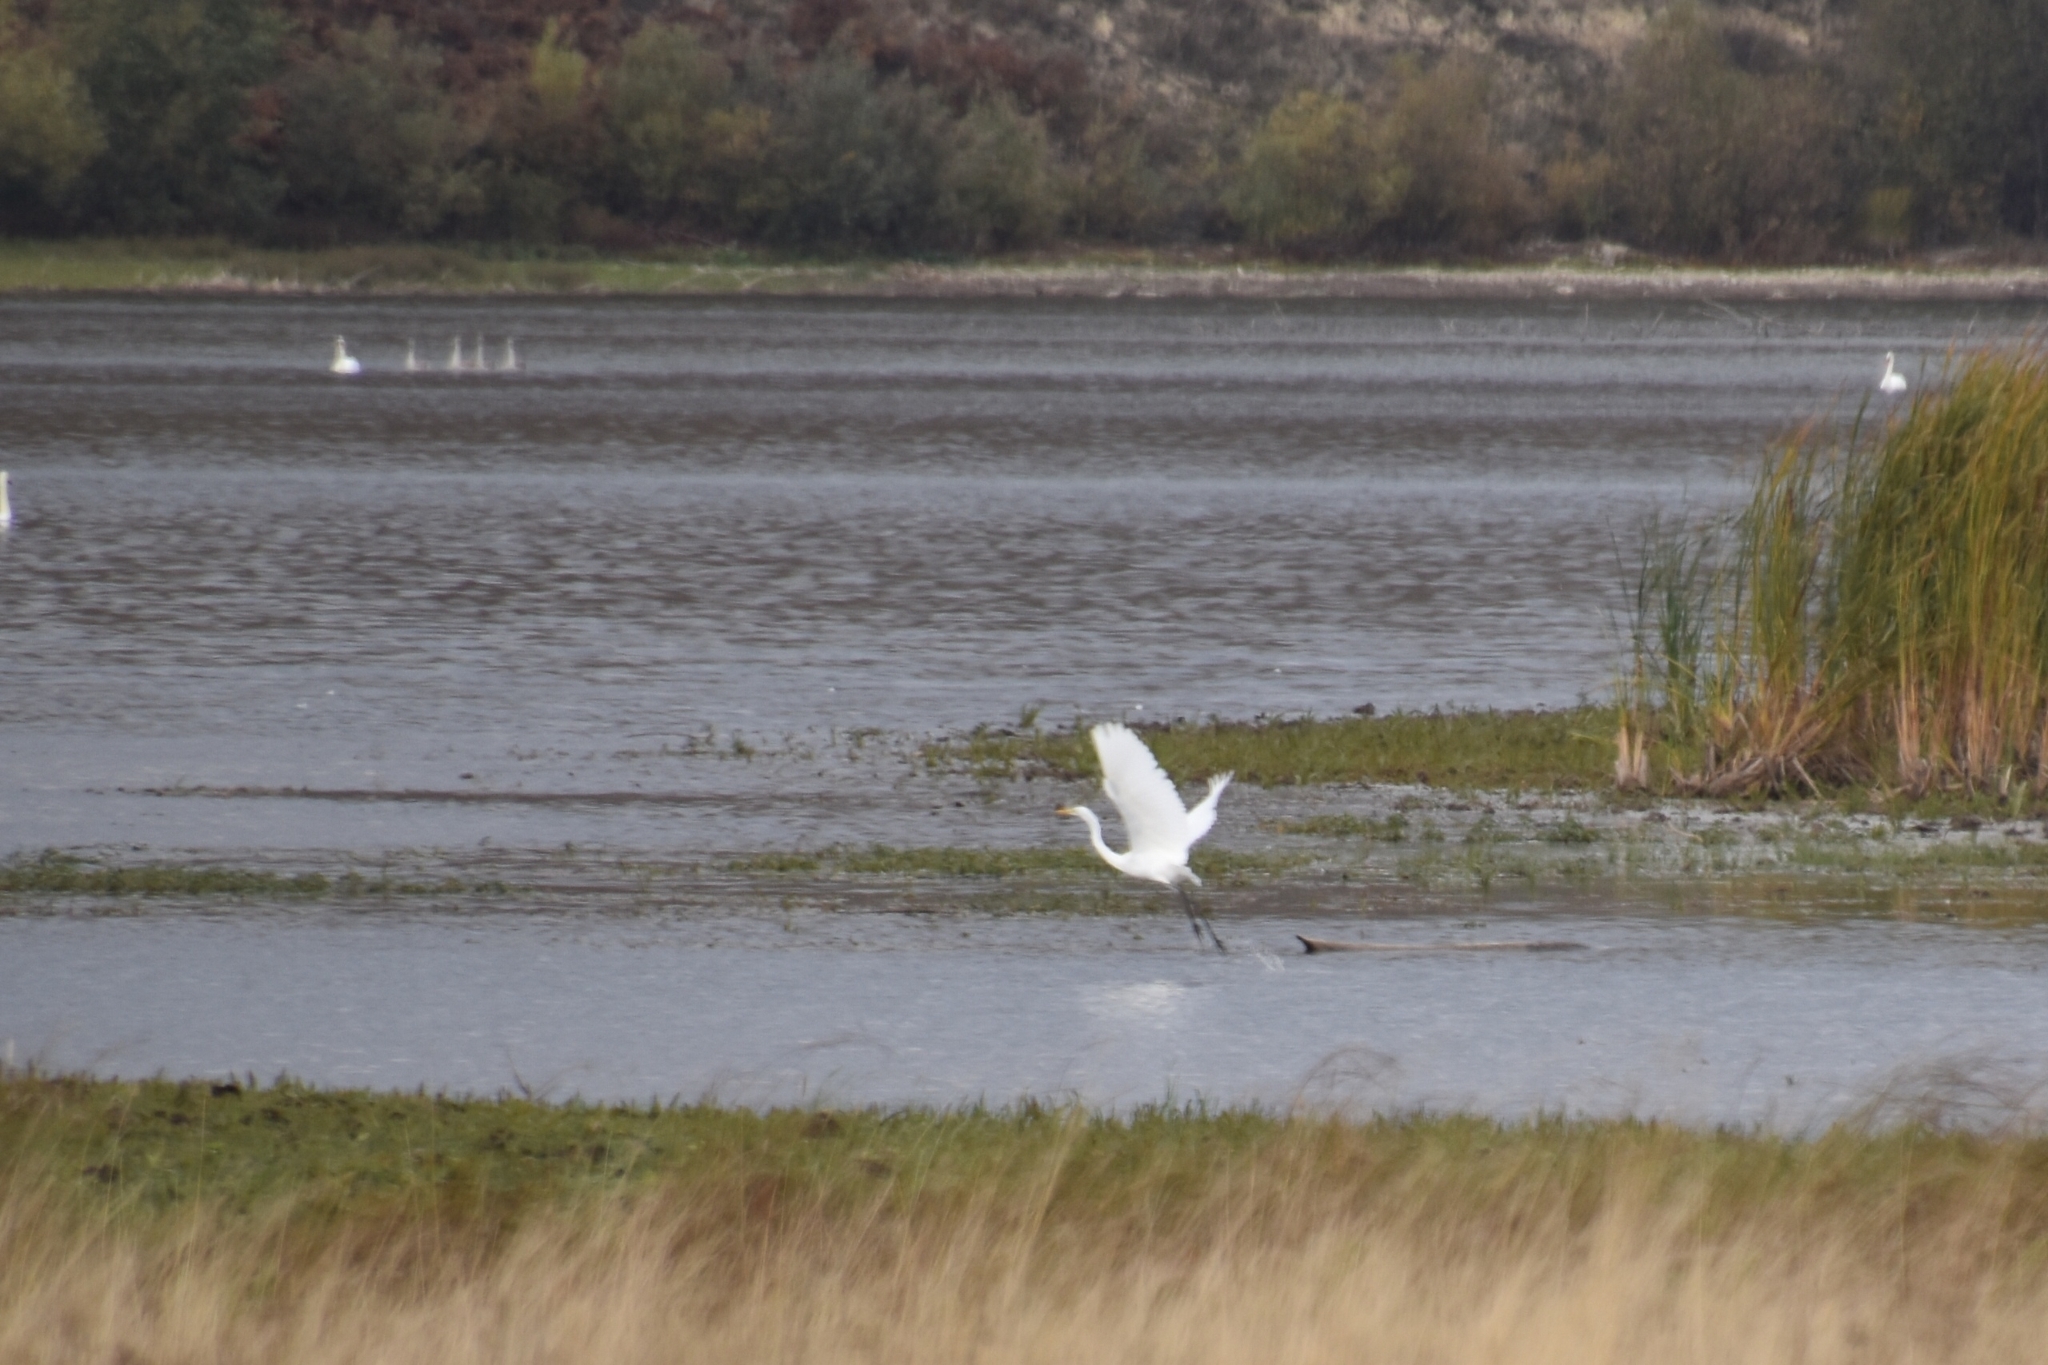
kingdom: Animalia
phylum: Chordata
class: Aves
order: Pelecaniformes
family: Ardeidae
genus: Ardea
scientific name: Ardea alba
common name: Great egret
